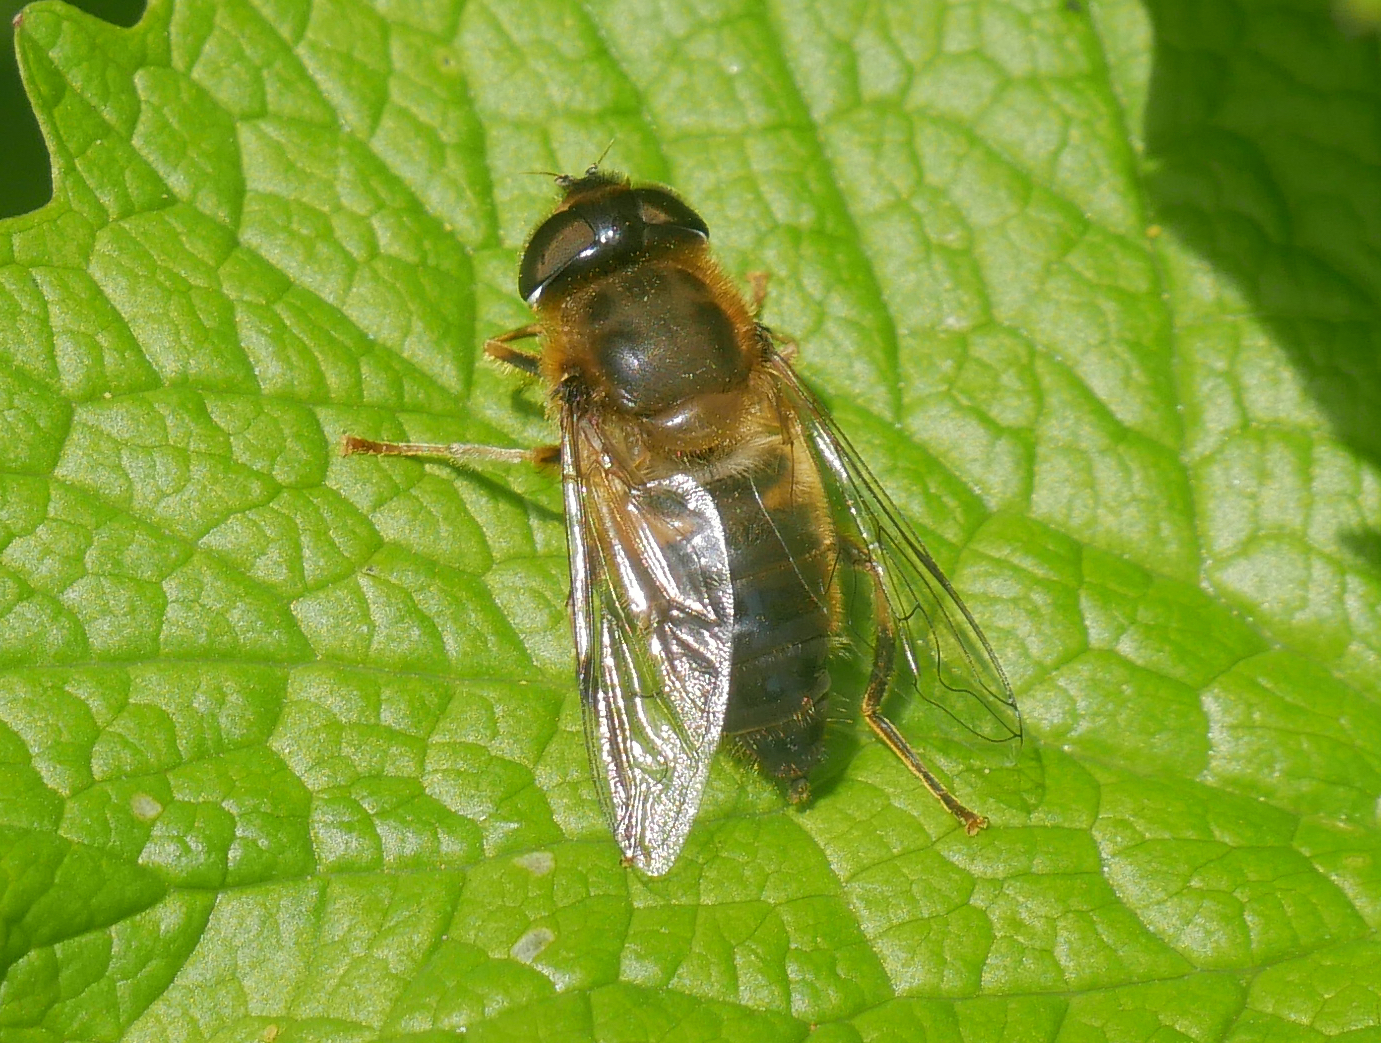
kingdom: Animalia
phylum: Arthropoda
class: Insecta
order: Diptera
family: Syrphidae
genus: Eristalis
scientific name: Eristalis pertinax
